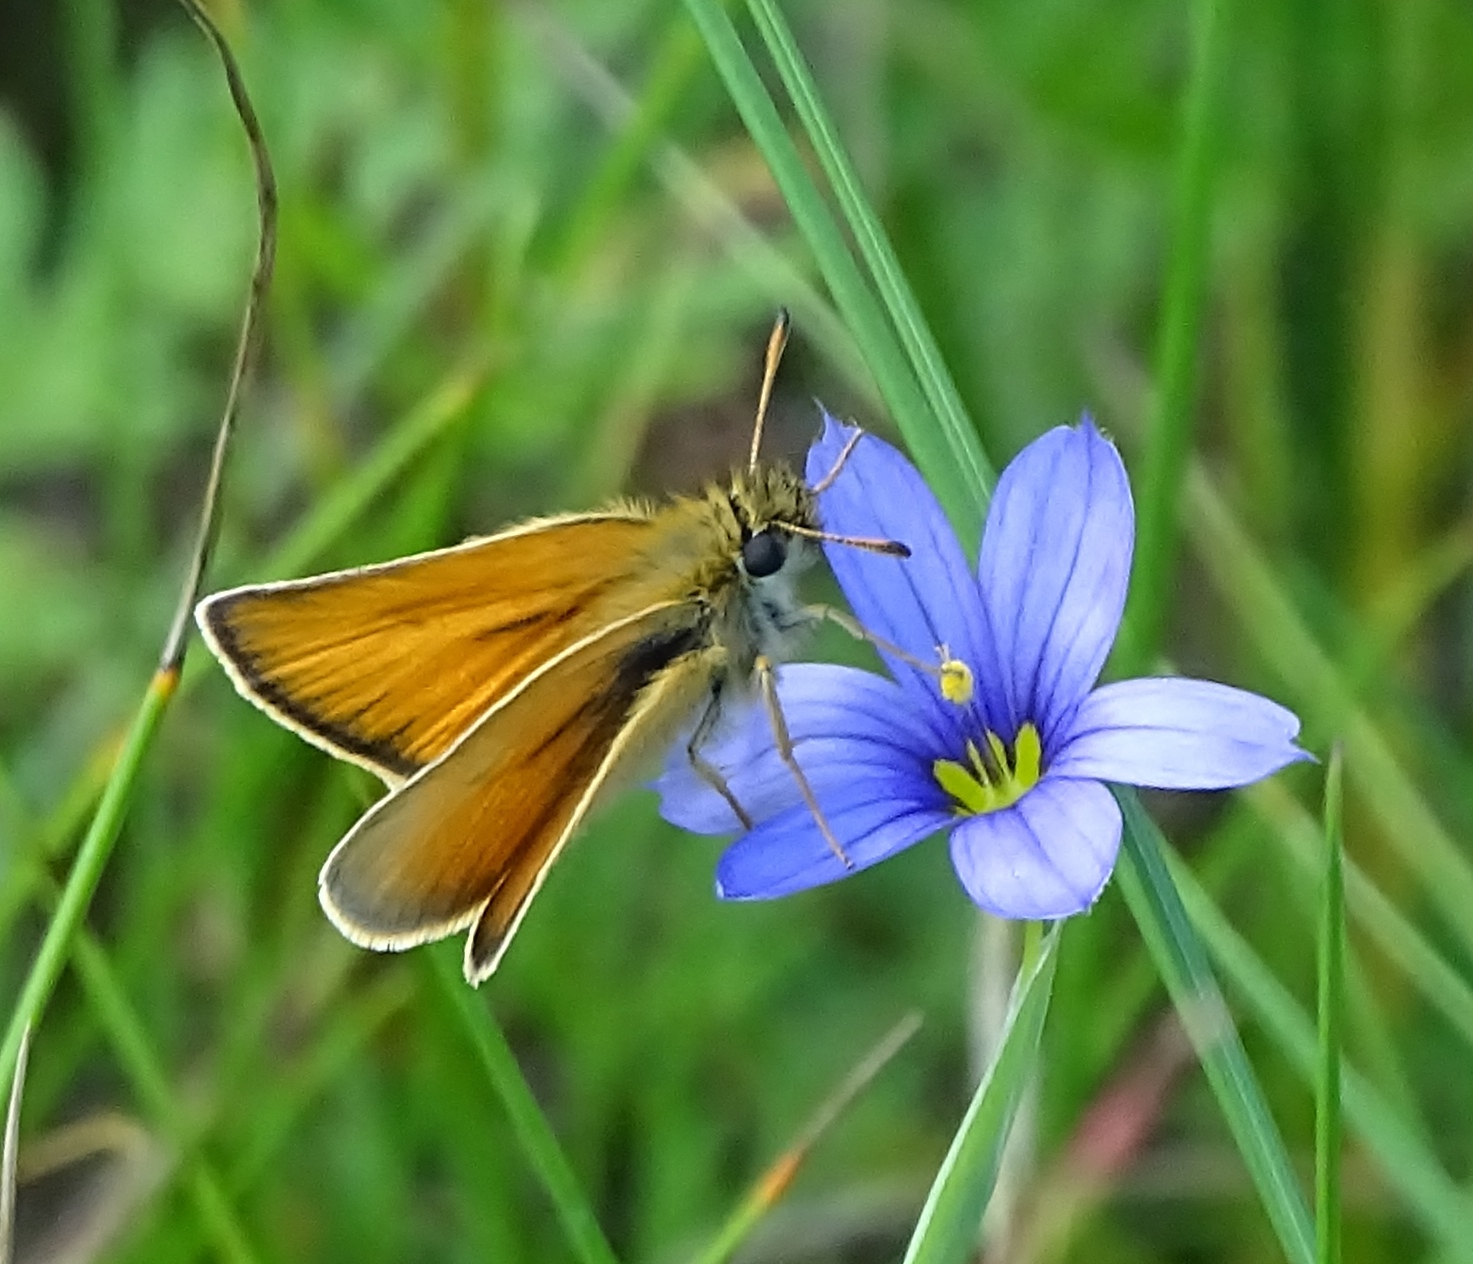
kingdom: Animalia
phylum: Arthropoda
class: Insecta
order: Lepidoptera
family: Hesperiidae
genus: Thymelicus
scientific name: Thymelicus lineola
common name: Essex skipper
